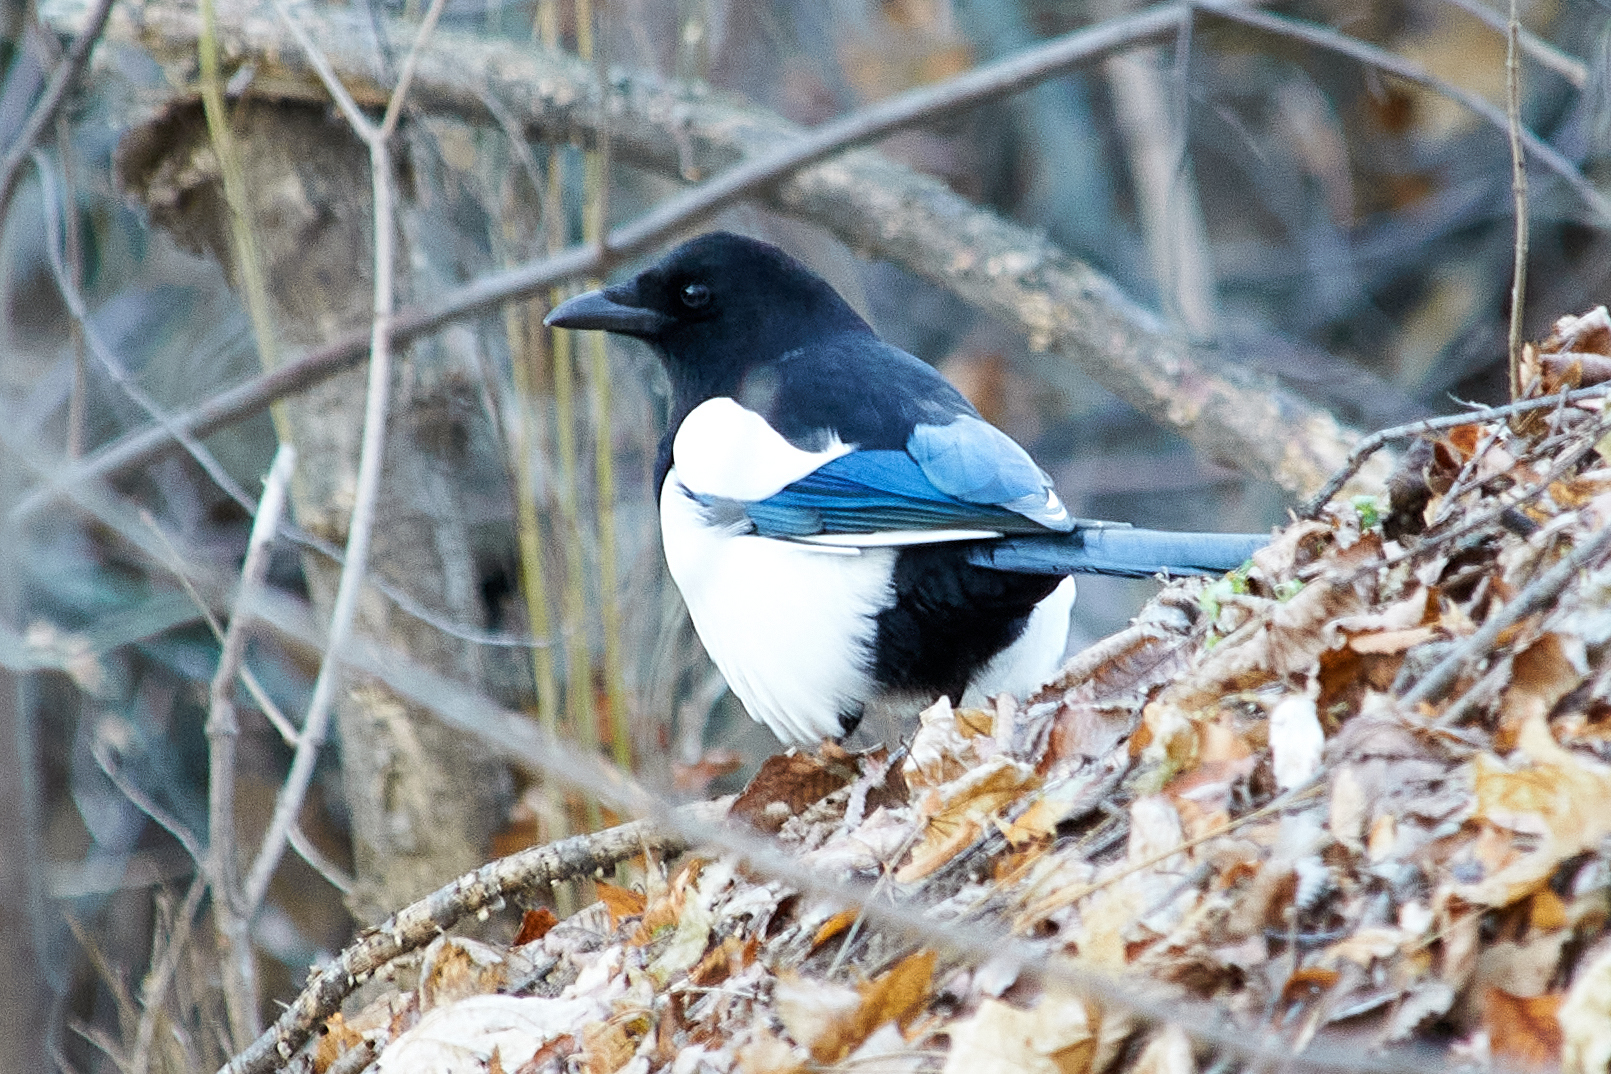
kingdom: Animalia
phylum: Chordata
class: Aves
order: Passeriformes
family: Corvidae
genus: Pica
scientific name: Pica pica
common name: Eurasian magpie
